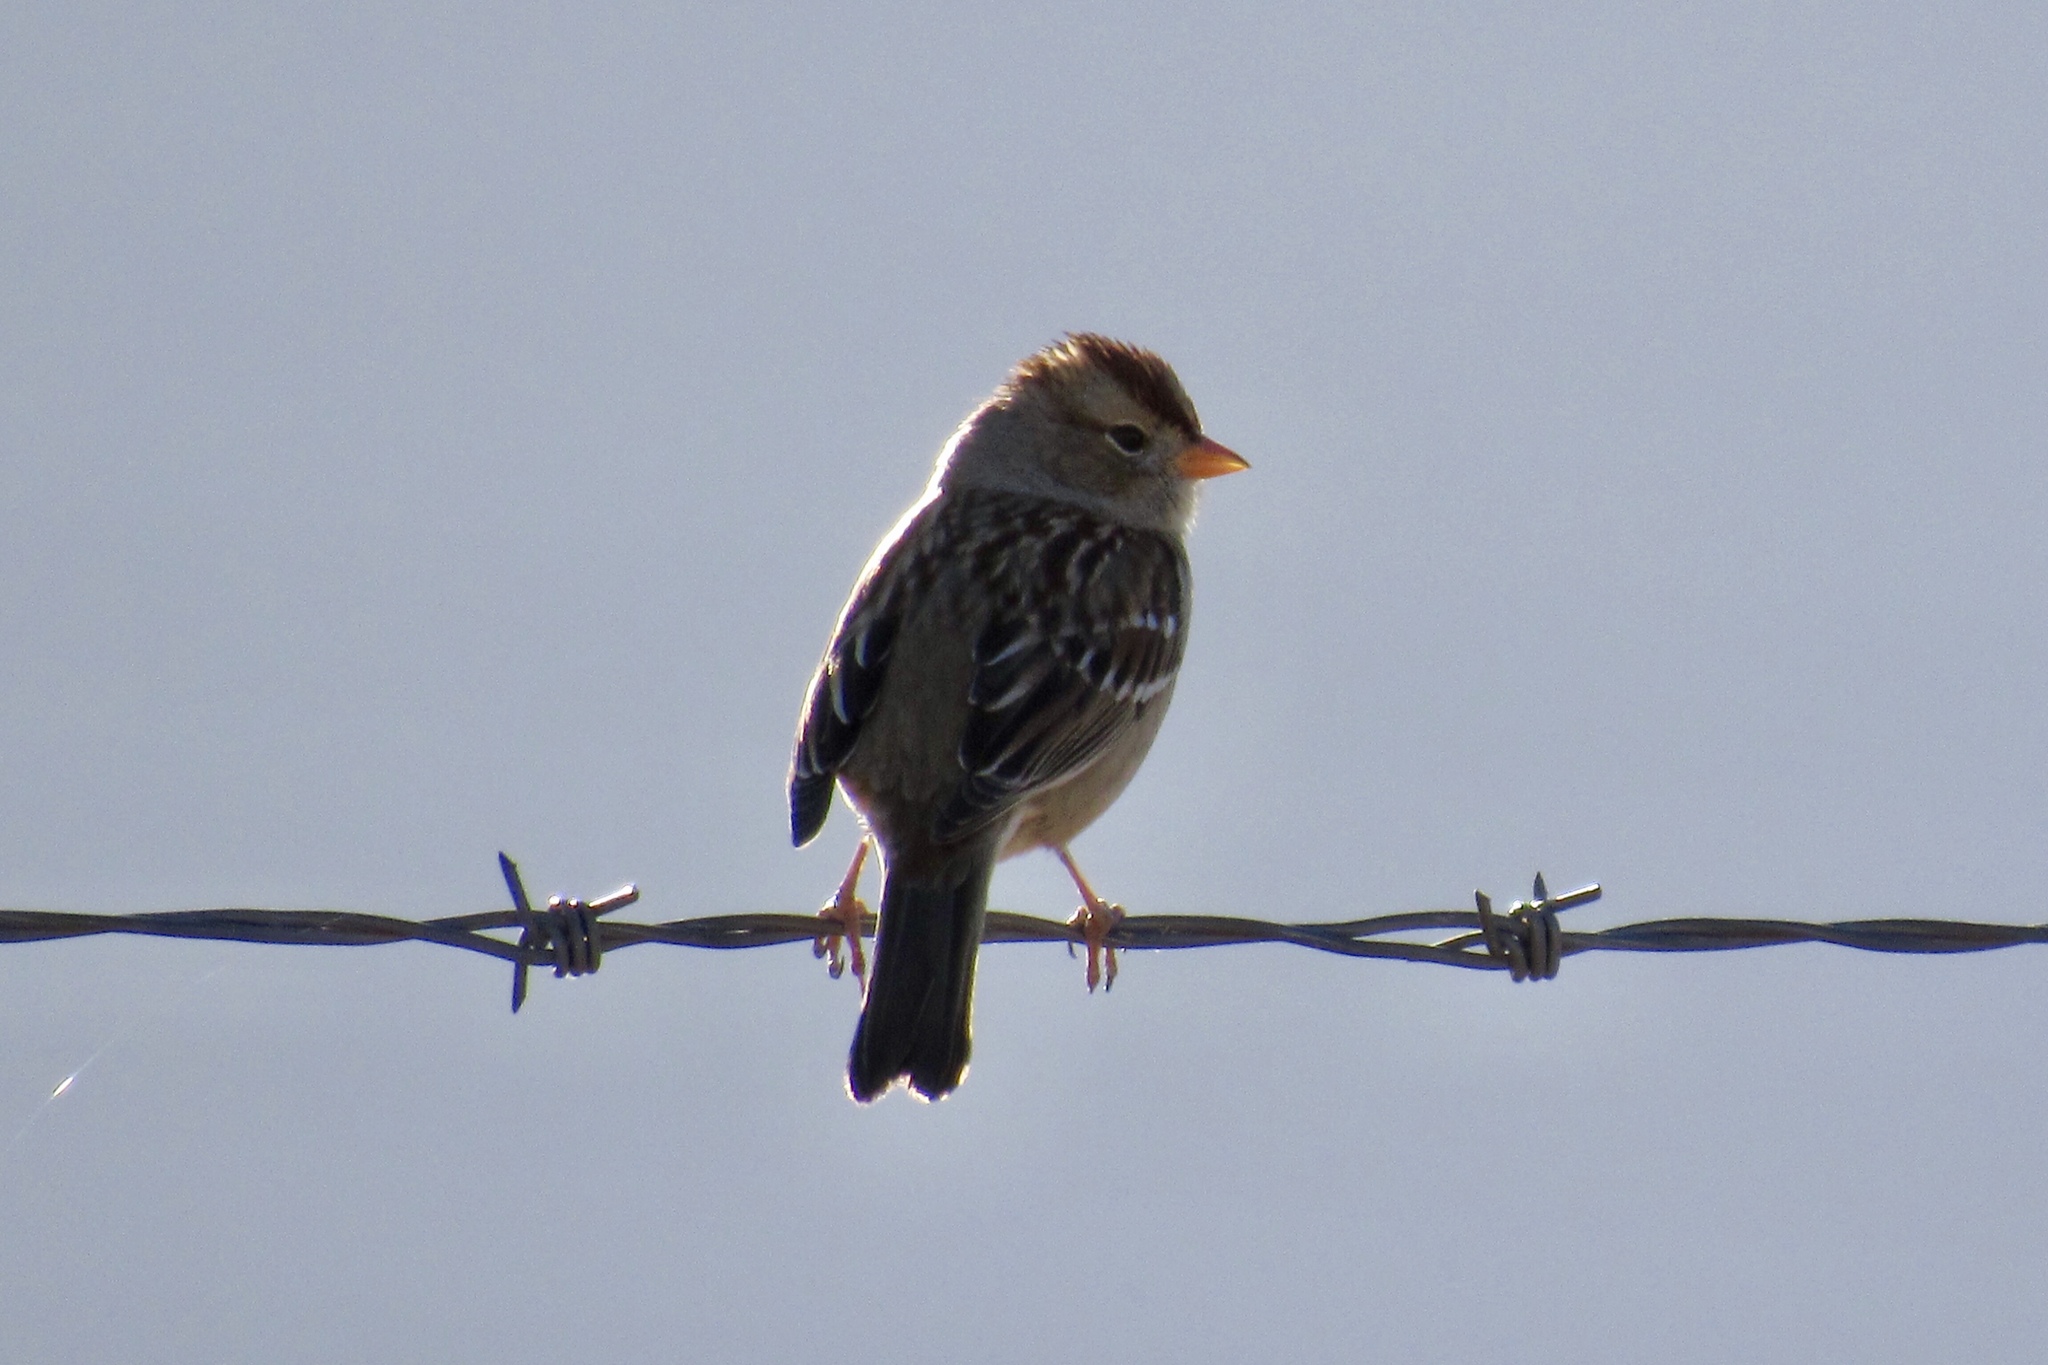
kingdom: Animalia
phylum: Chordata
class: Aves
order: Passeriformes
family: Passerellidae
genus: Zonotrichia
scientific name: Zonotrichia leucophrys
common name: White-crowned sparrow
